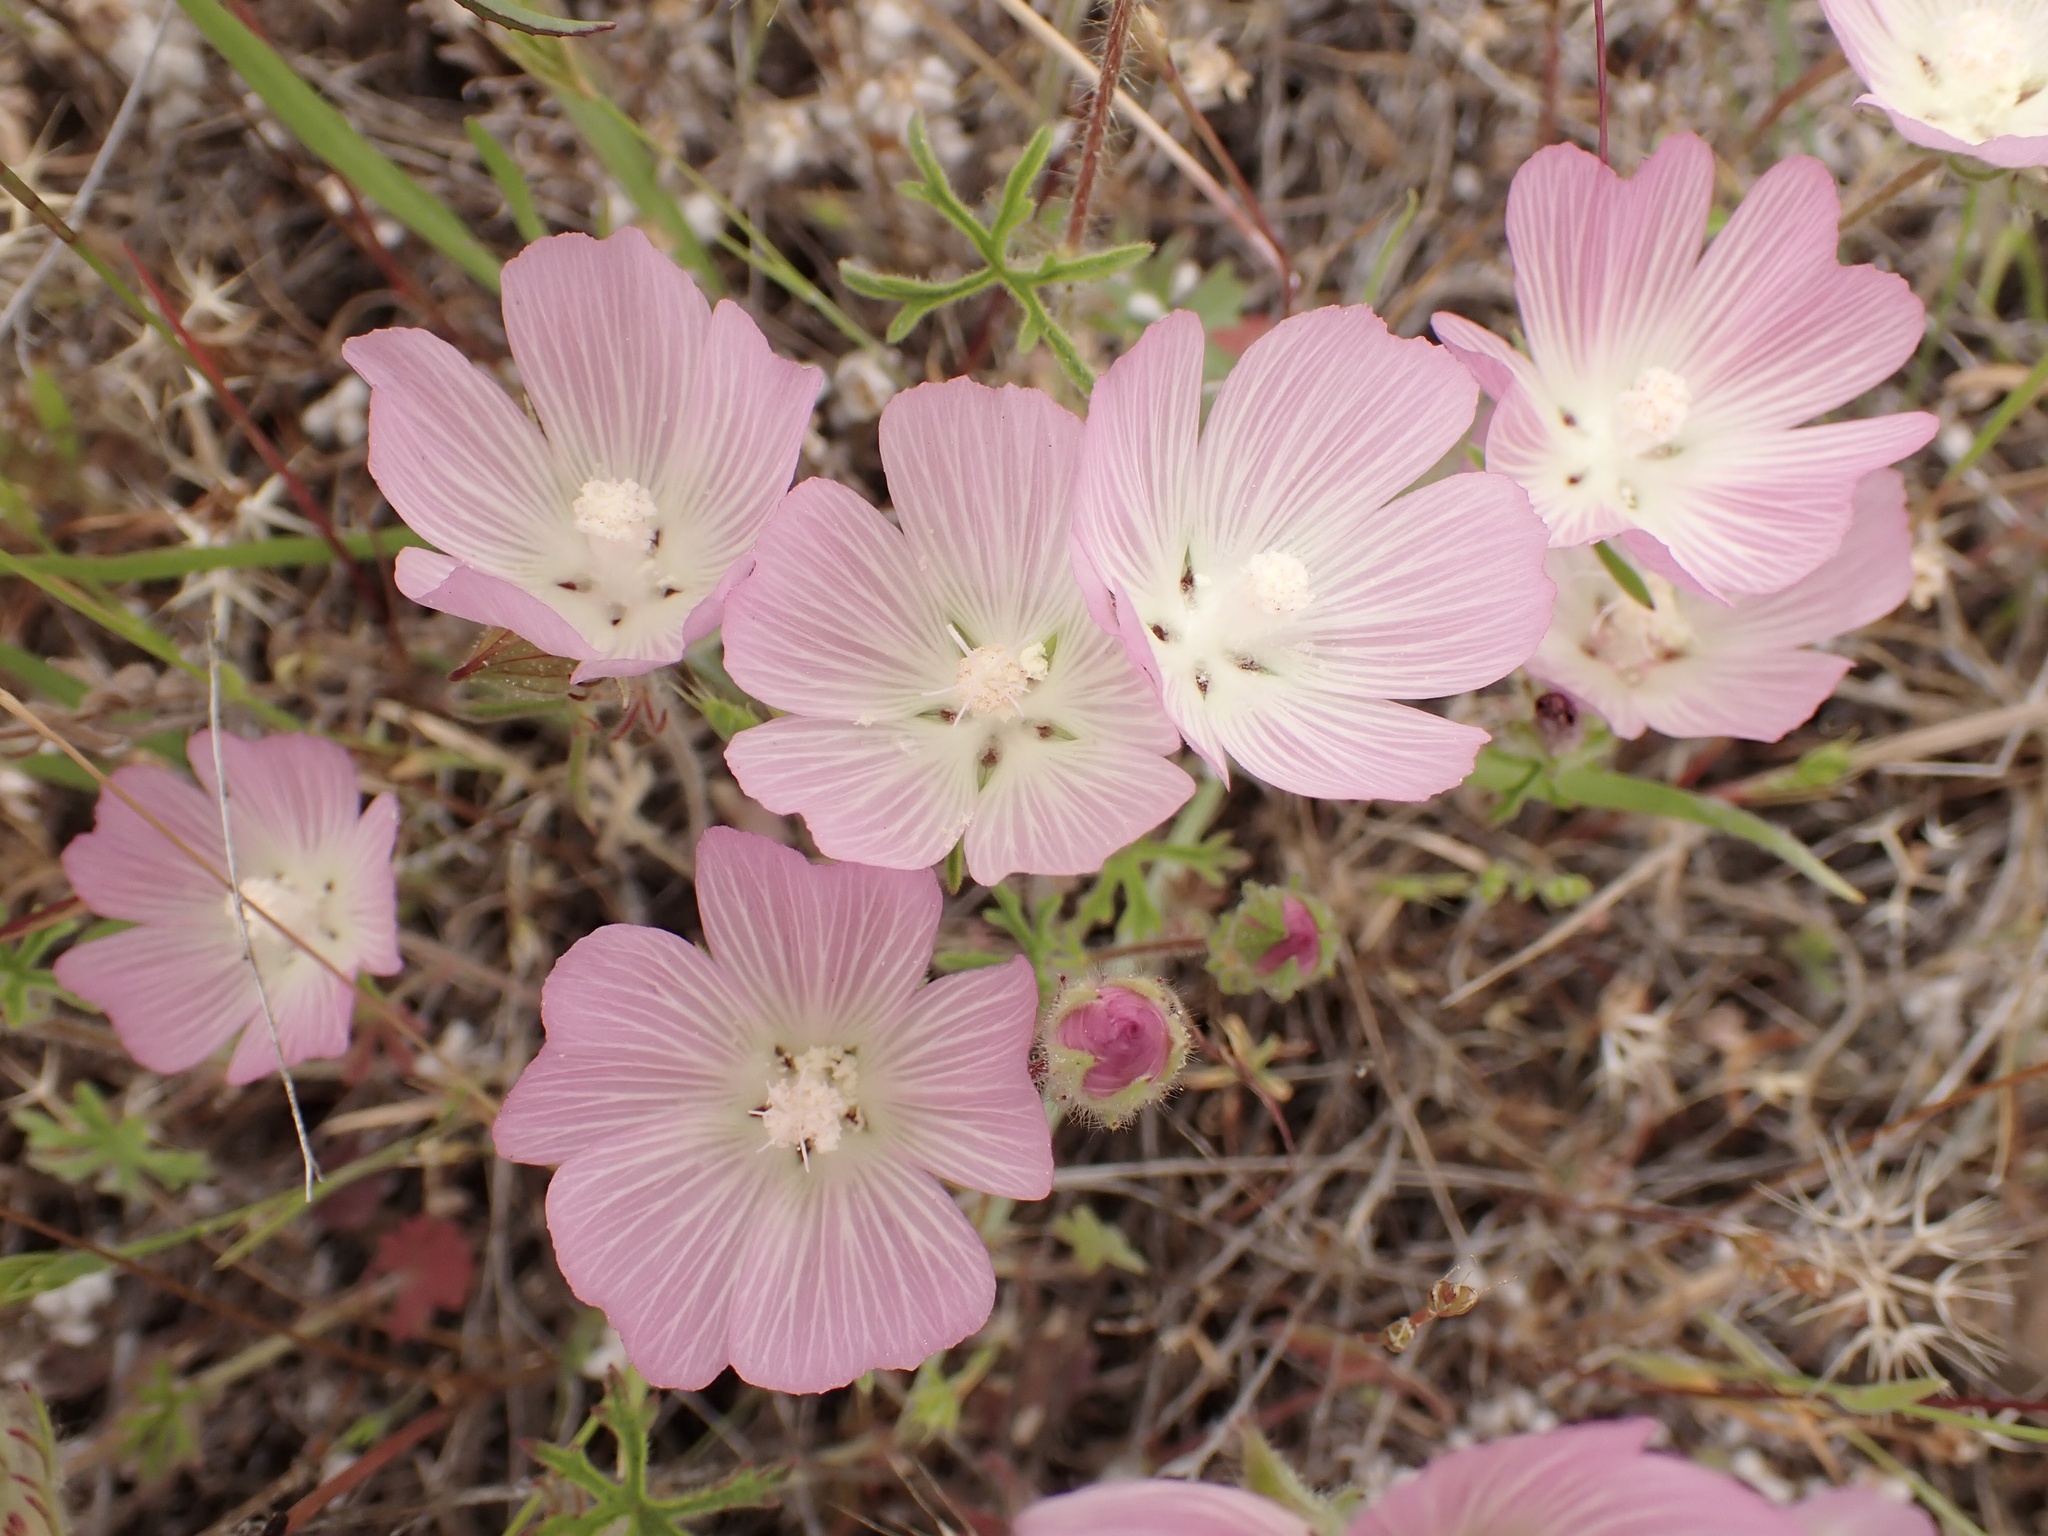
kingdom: Plantae
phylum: Tracheophyta
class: Magnoliopsida
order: Malvales
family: Malvaceae
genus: Sidalcea
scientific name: Sidalcea diploscypha
